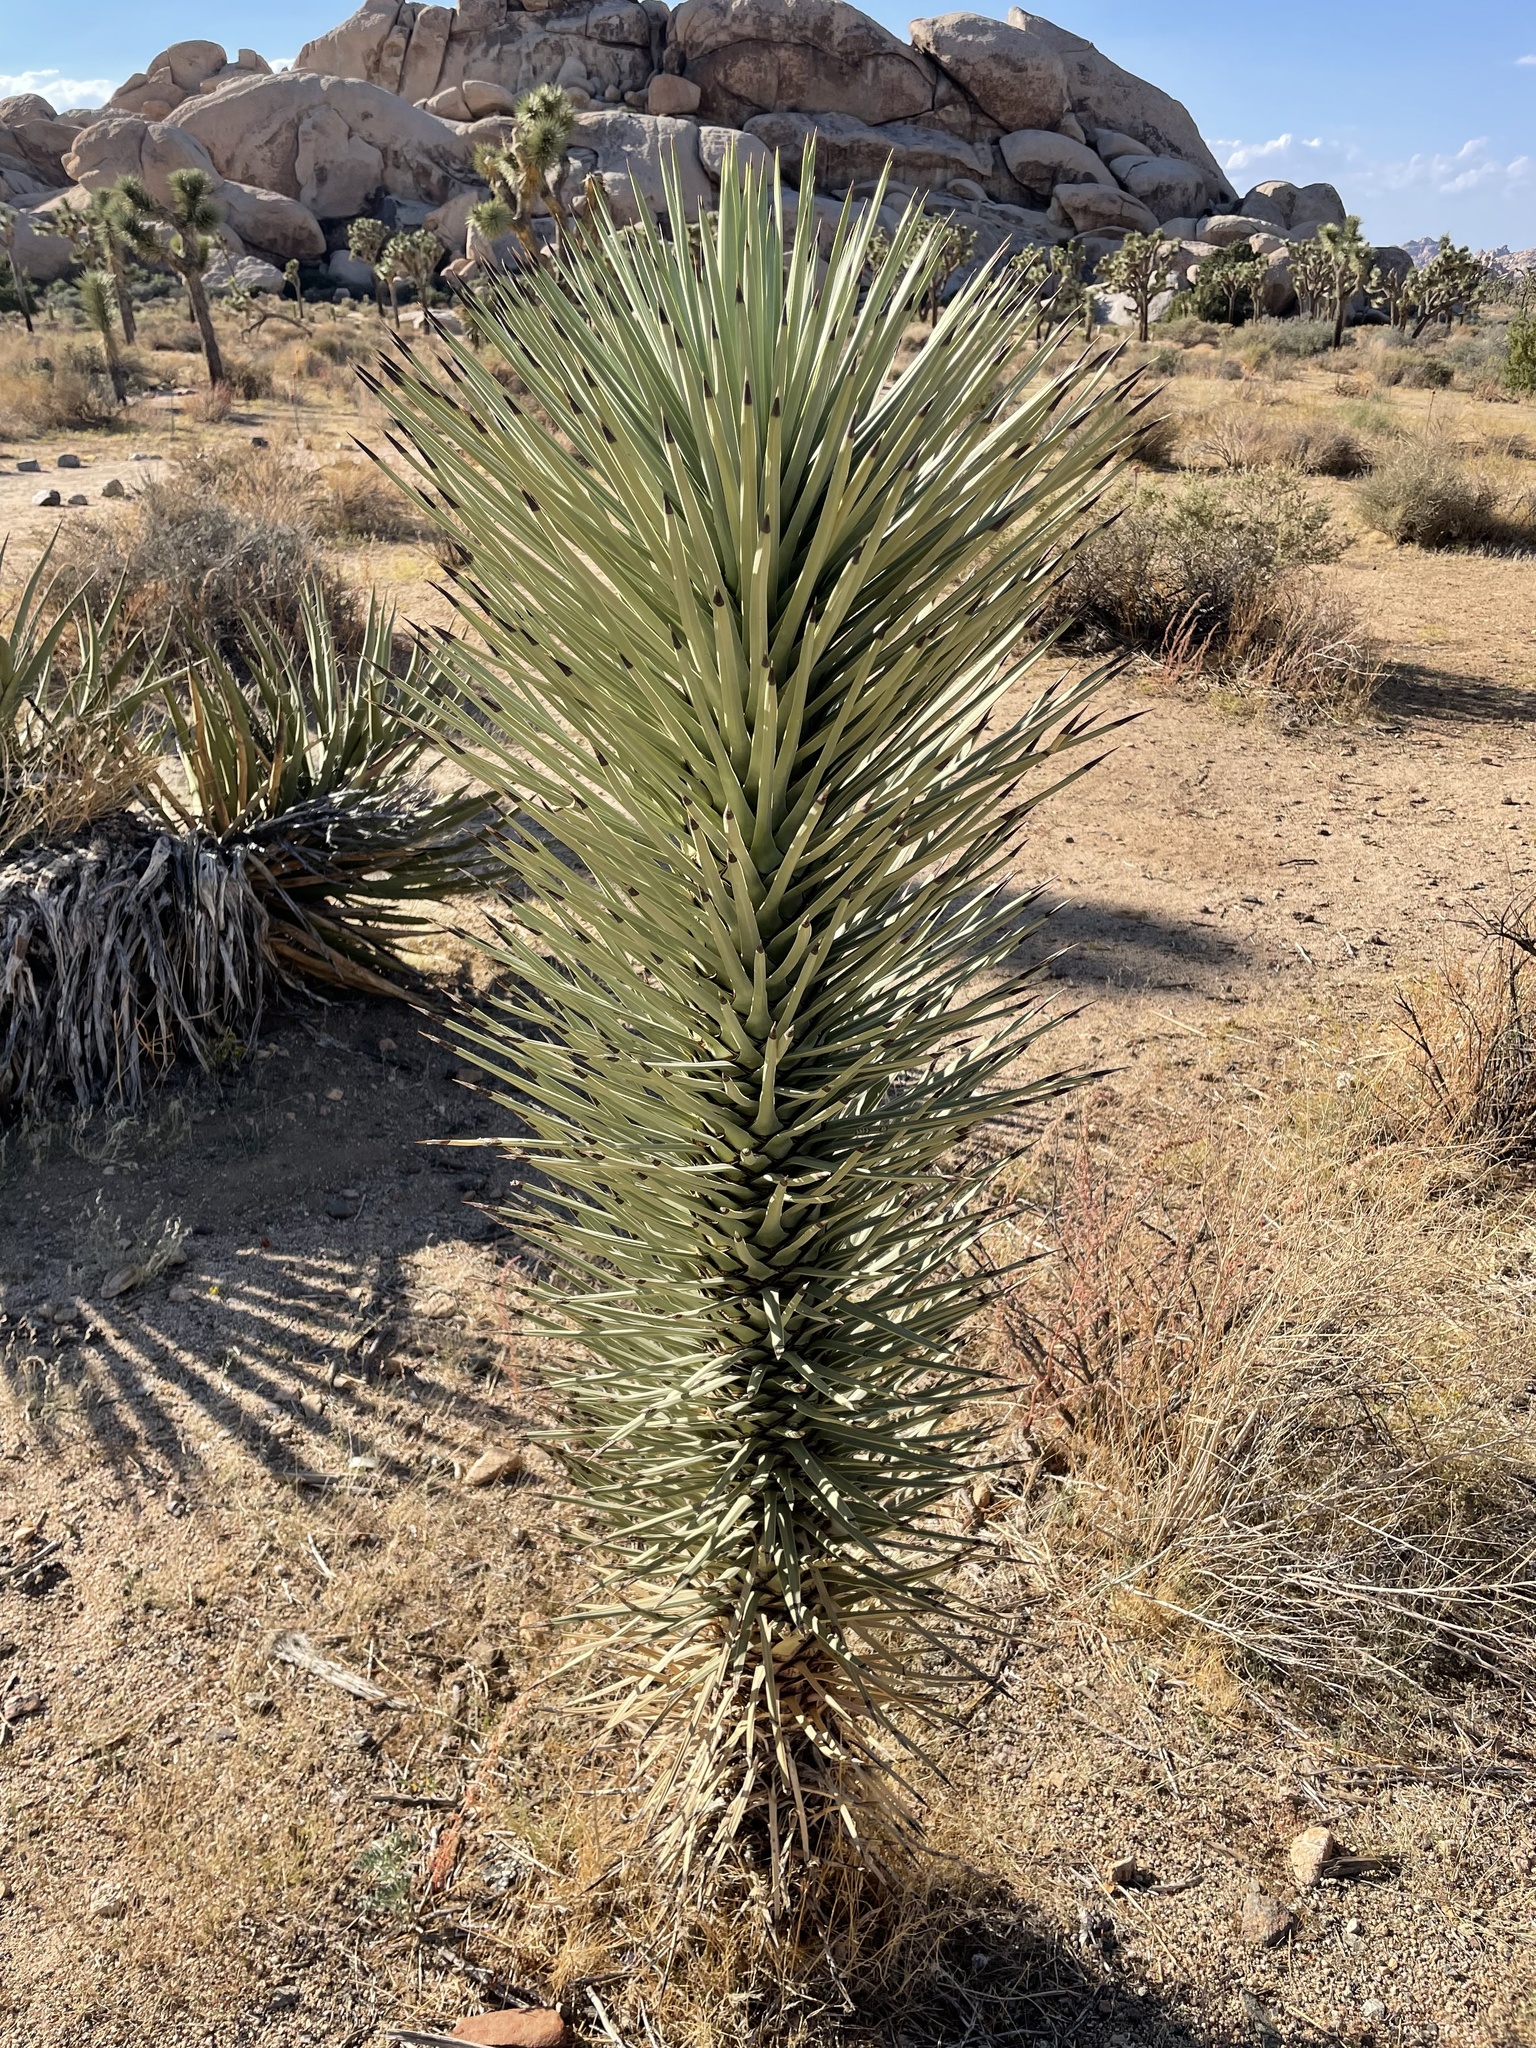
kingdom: Plantae
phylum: Tracheophyta
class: Liliopsida
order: Asparagales
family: Asparagaceae
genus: Yucca
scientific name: Yucca brevifolia
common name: Joshua tree
